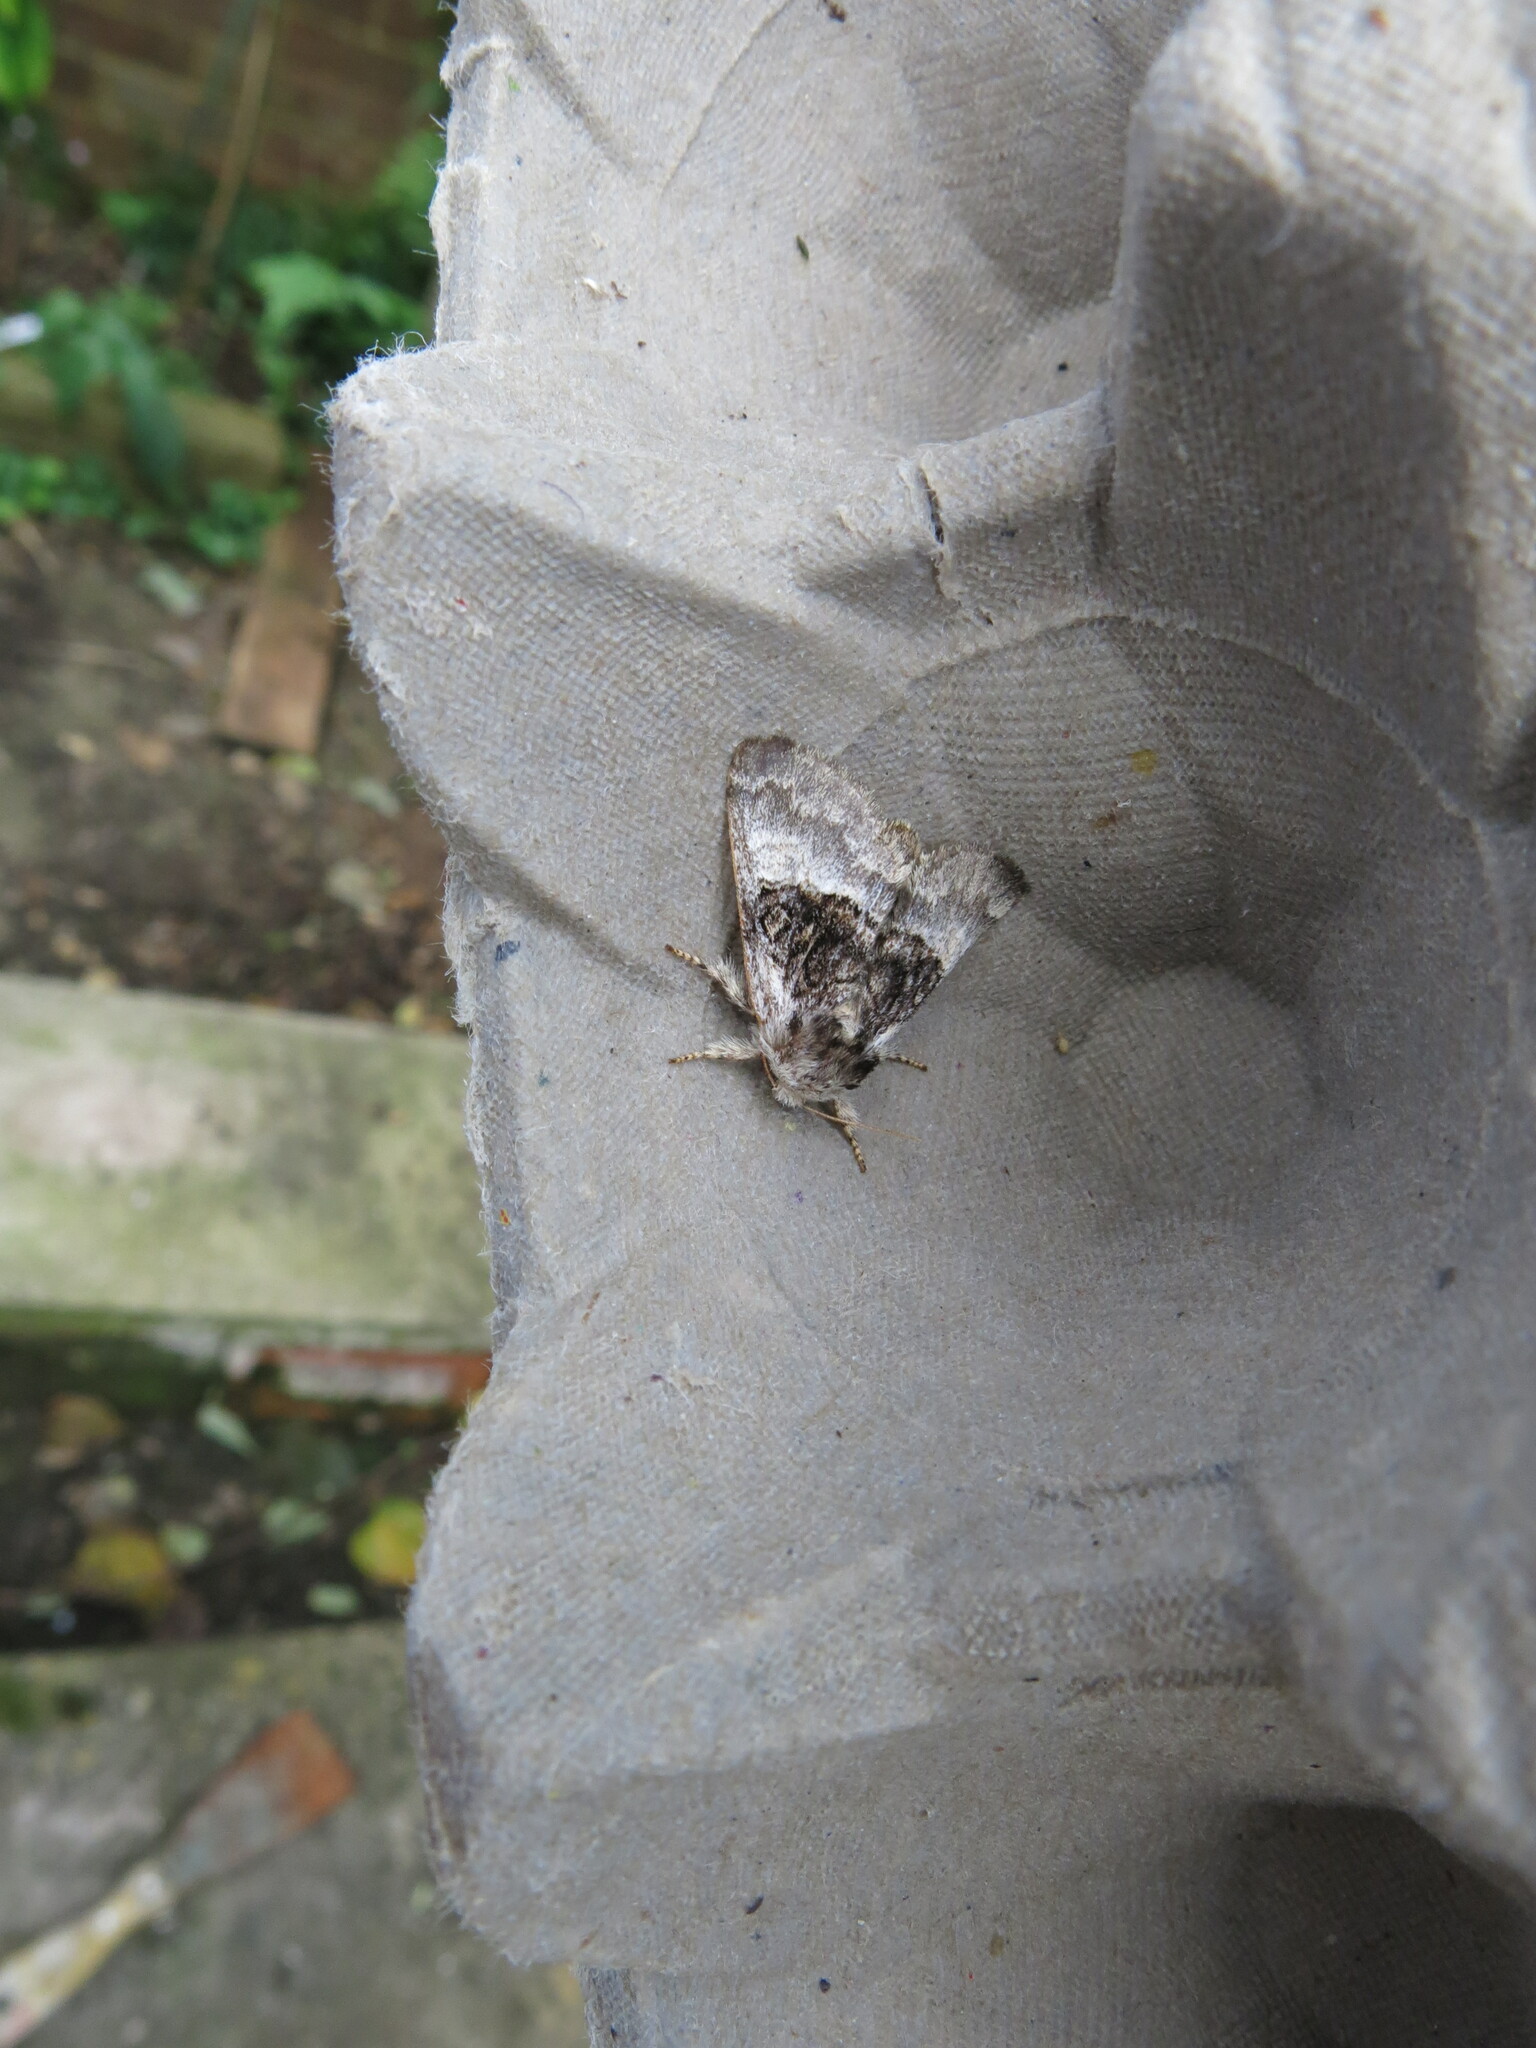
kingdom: Animalia
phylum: Arthropoda
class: Insecta
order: Lepidoptera
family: Noctuidae
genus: Colocasia
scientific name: Colocasia coryli
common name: Nut-tree tussock
